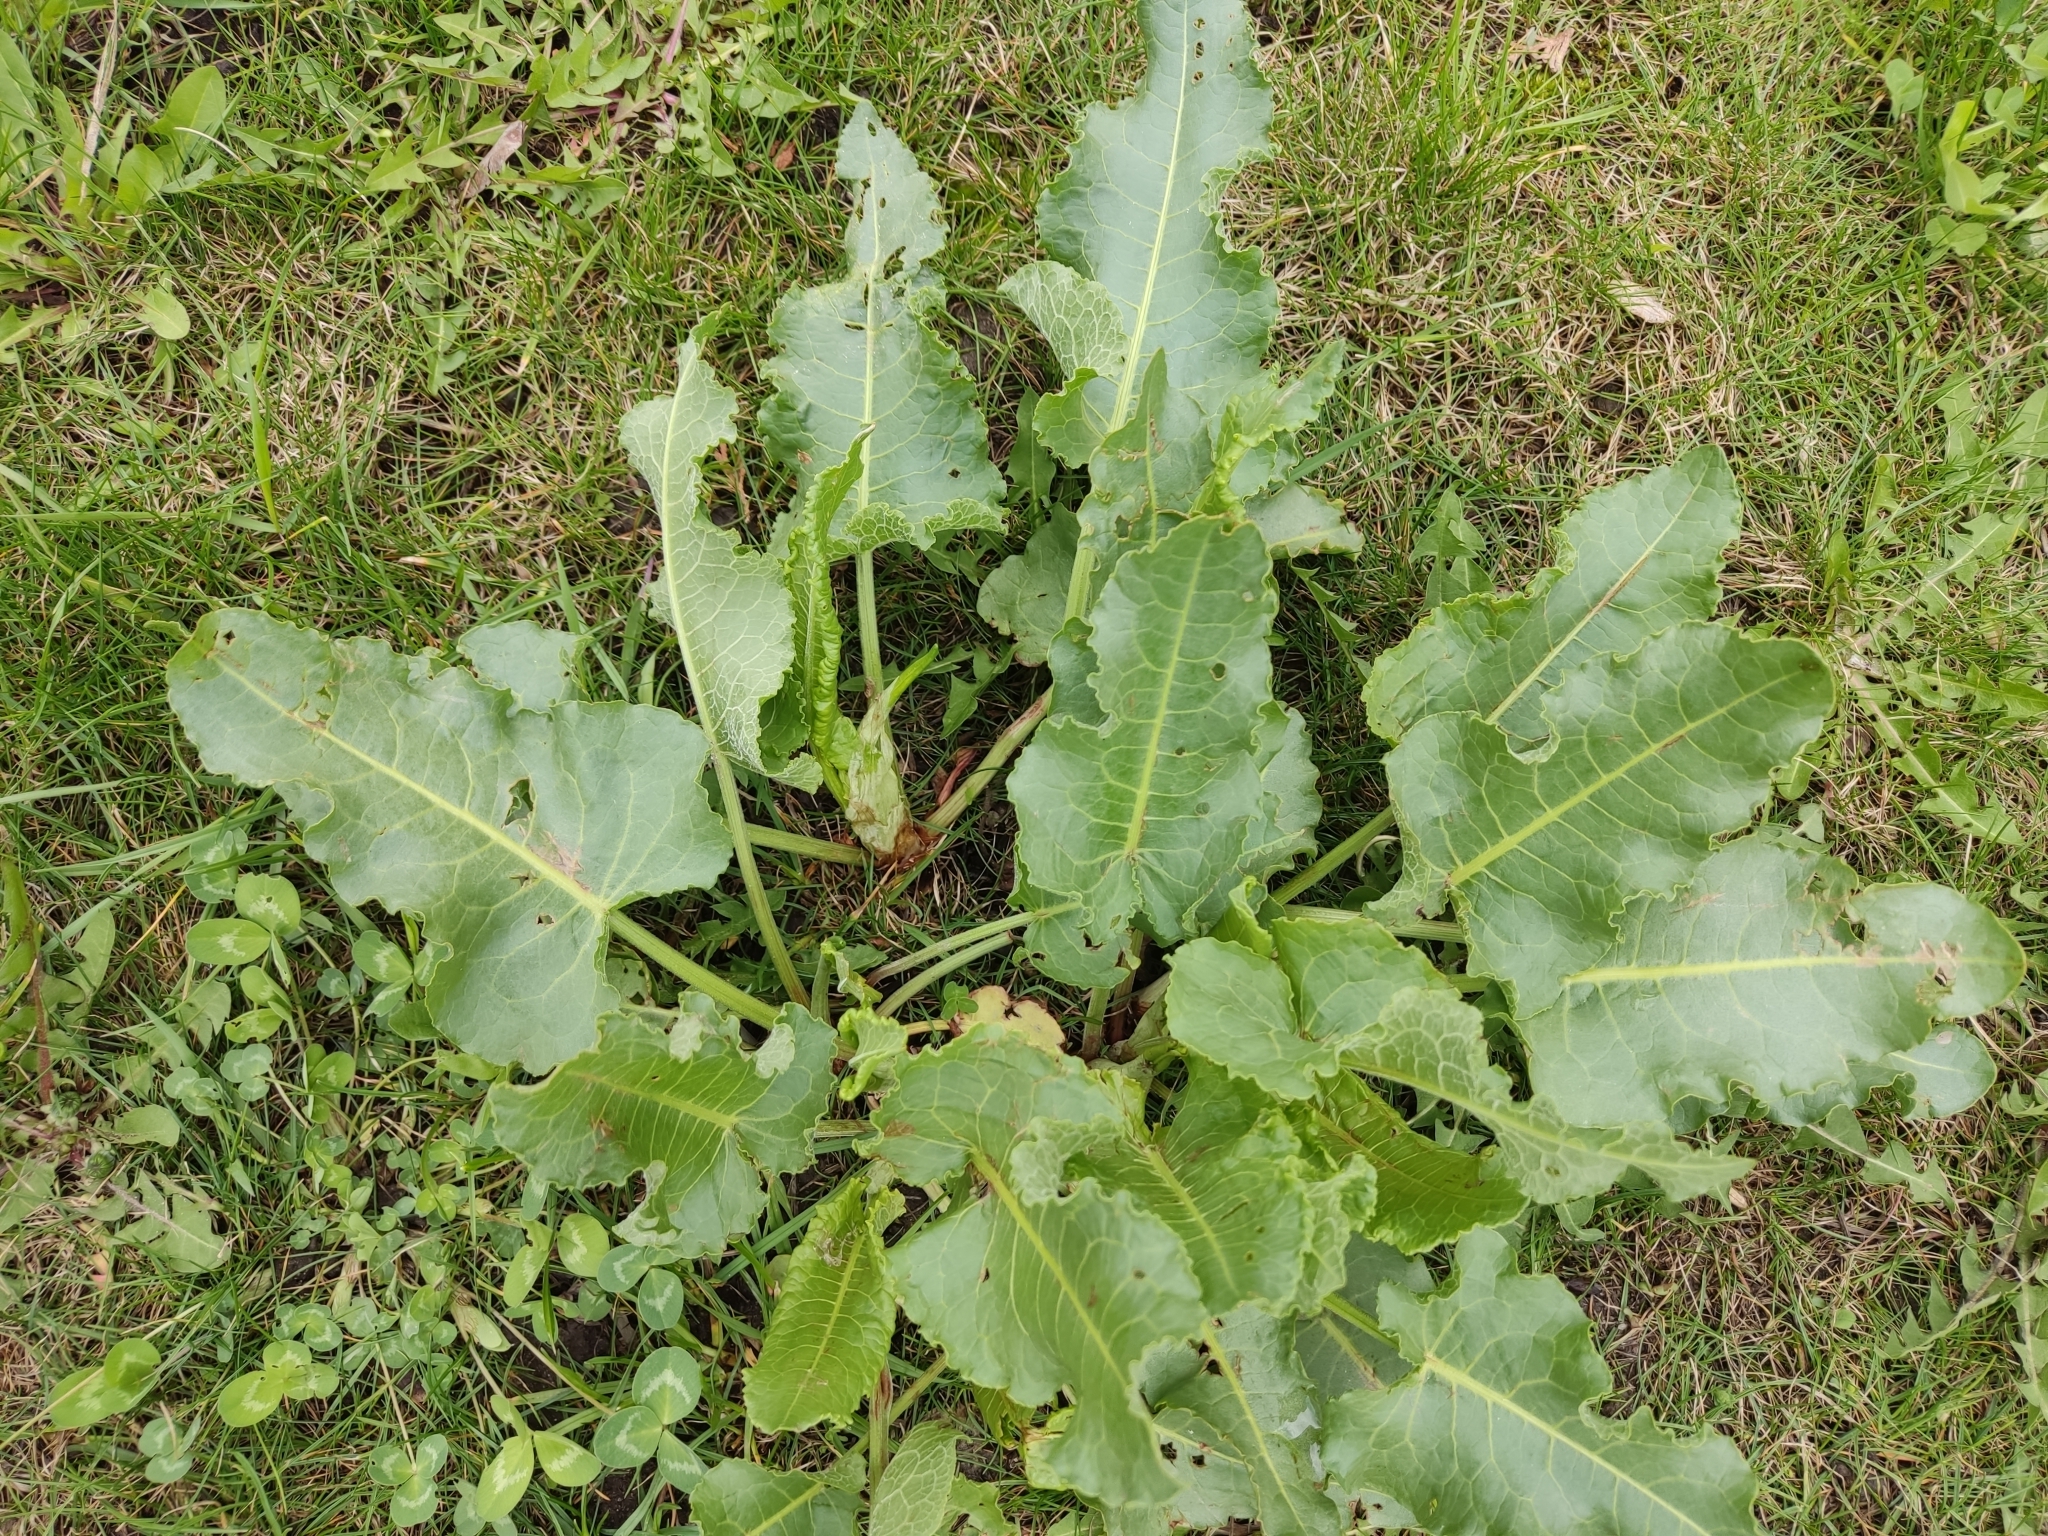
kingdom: Plantae
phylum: Tracheophyta
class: Magnoliopsida
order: Caryophyllales
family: Polygonaceae
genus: Rumex
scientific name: Rumex confertus
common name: Russian dock
